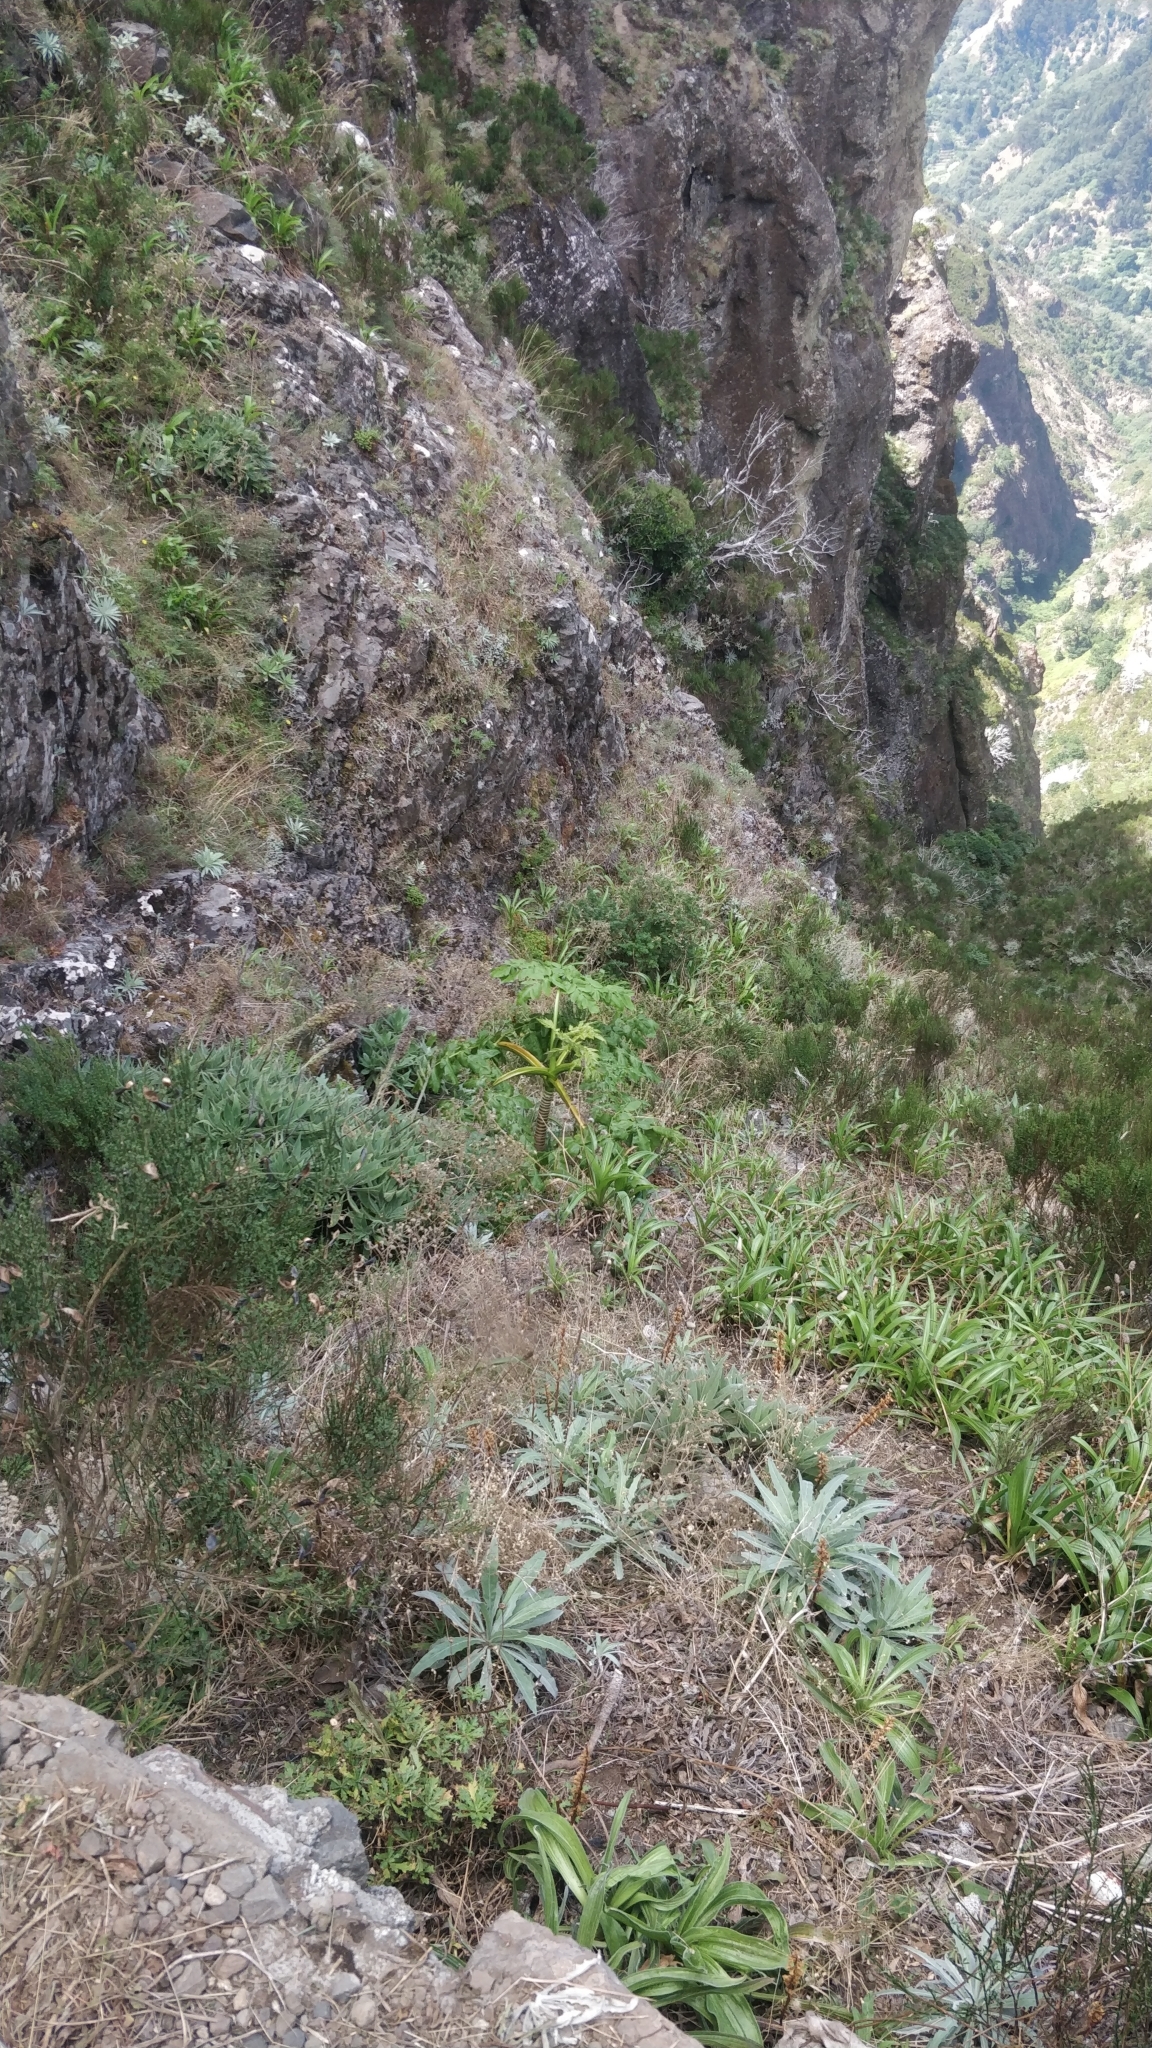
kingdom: Plantae
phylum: Tracheophyta
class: Magnoliopsida
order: Apiales
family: Apiaceae
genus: Daucus
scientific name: Daucus decipiens
